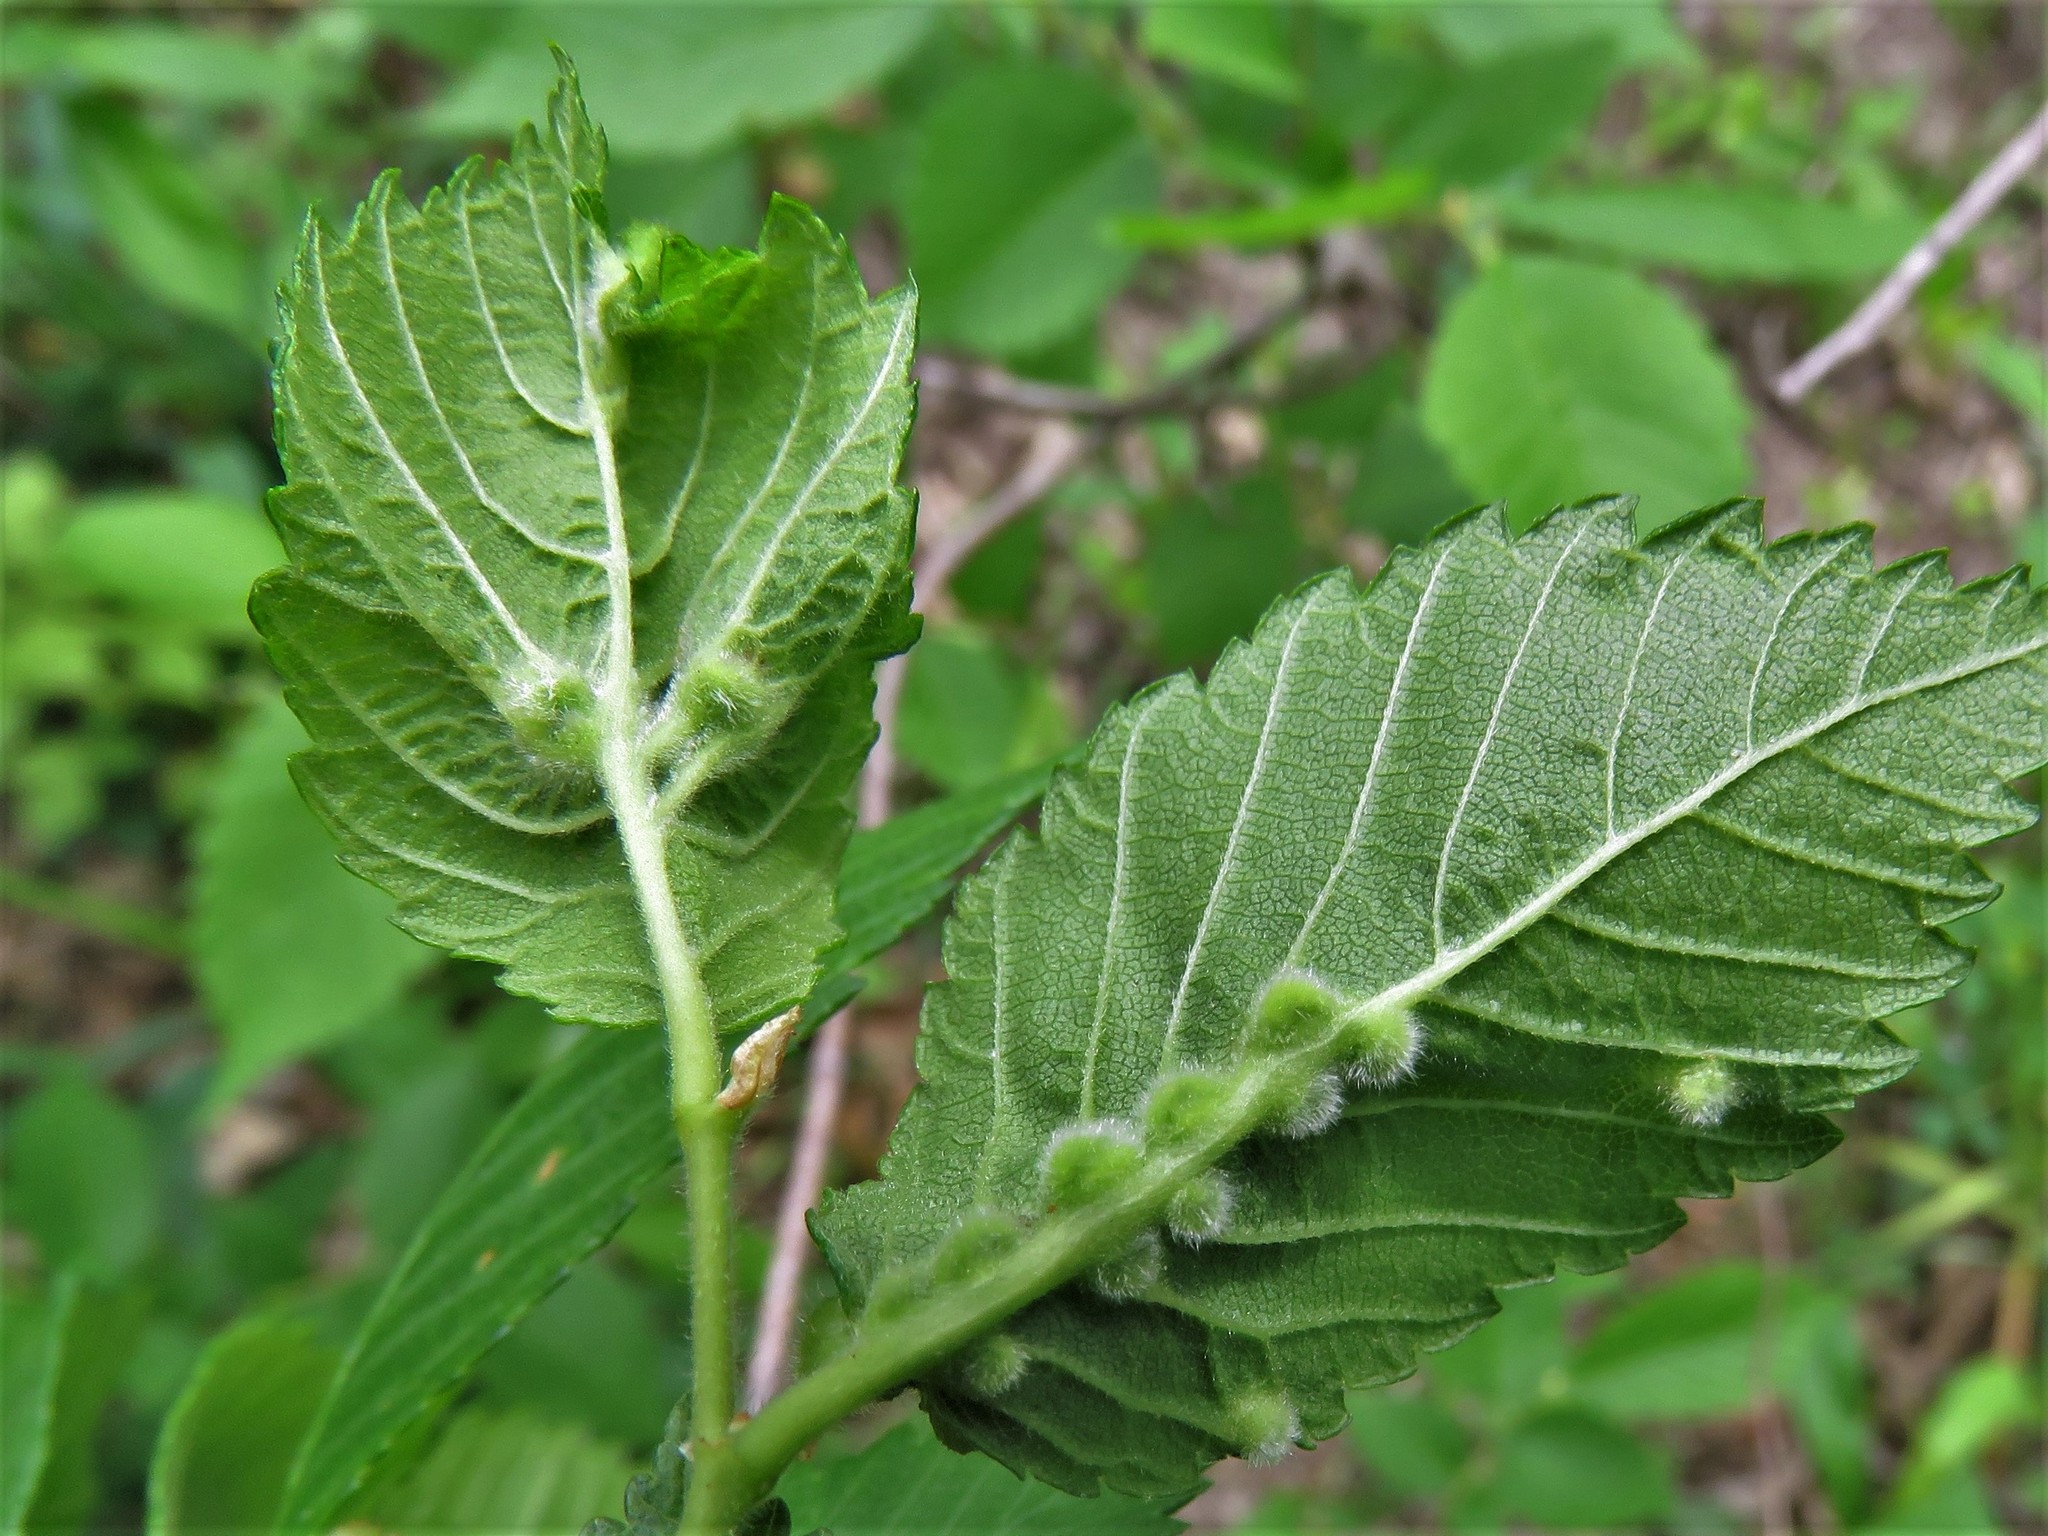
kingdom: Animalia
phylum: Arthropoda
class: Arachnida
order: Trombidiformes
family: Eriophyidae
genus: Aceria
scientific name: Aceria
